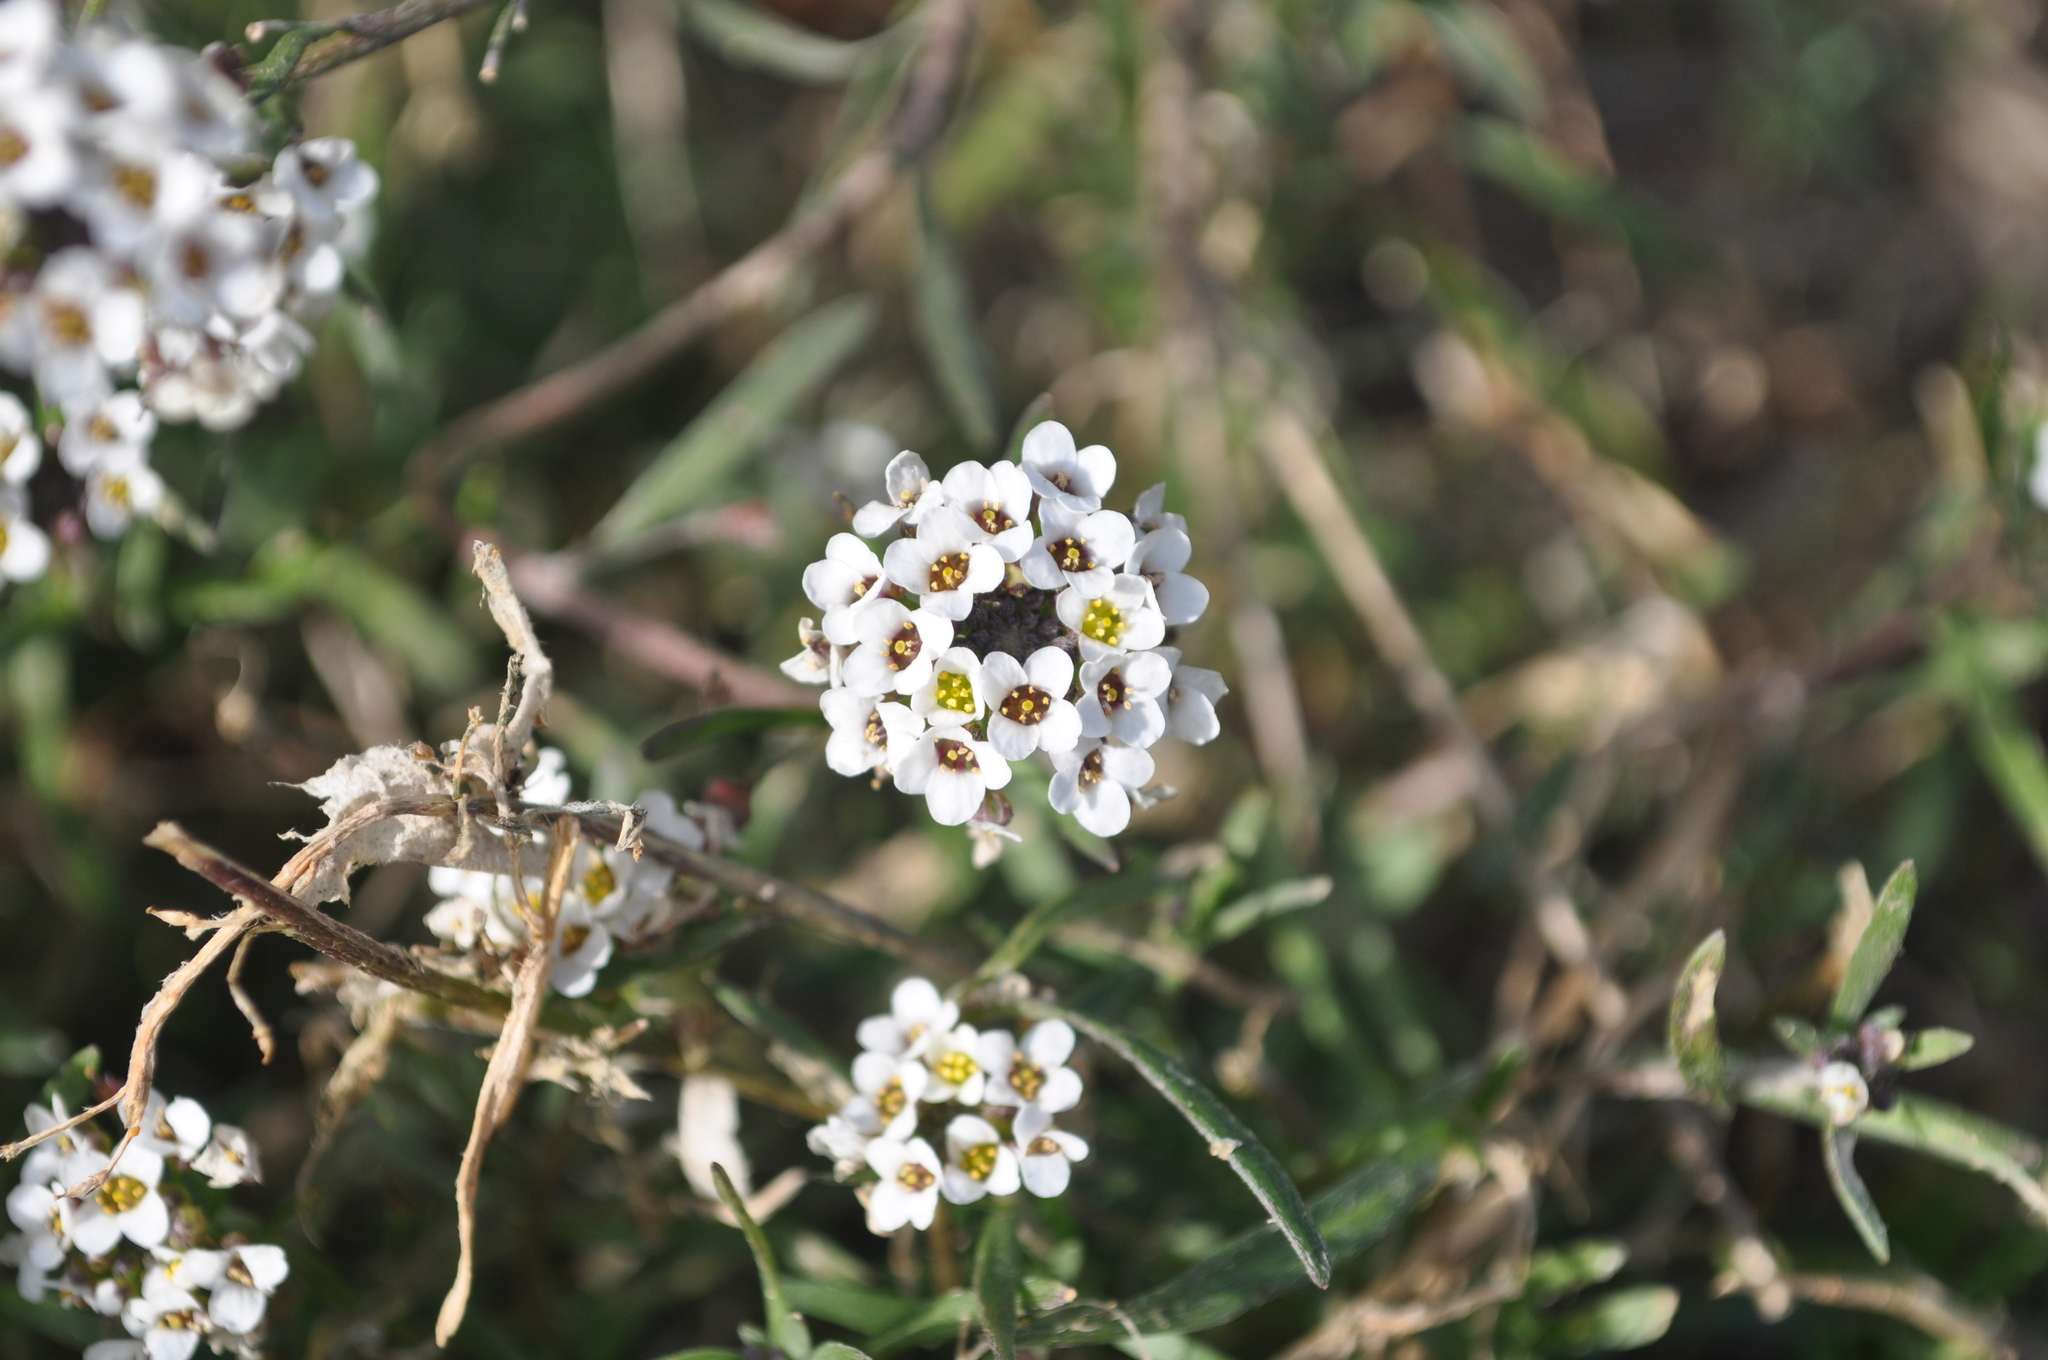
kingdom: Plantae
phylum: Tracheophyta
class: Magnoliopsida
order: Brassicales
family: Brassicaceae
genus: Lobularia
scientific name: Lobularia maritima
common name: Sweet alison
